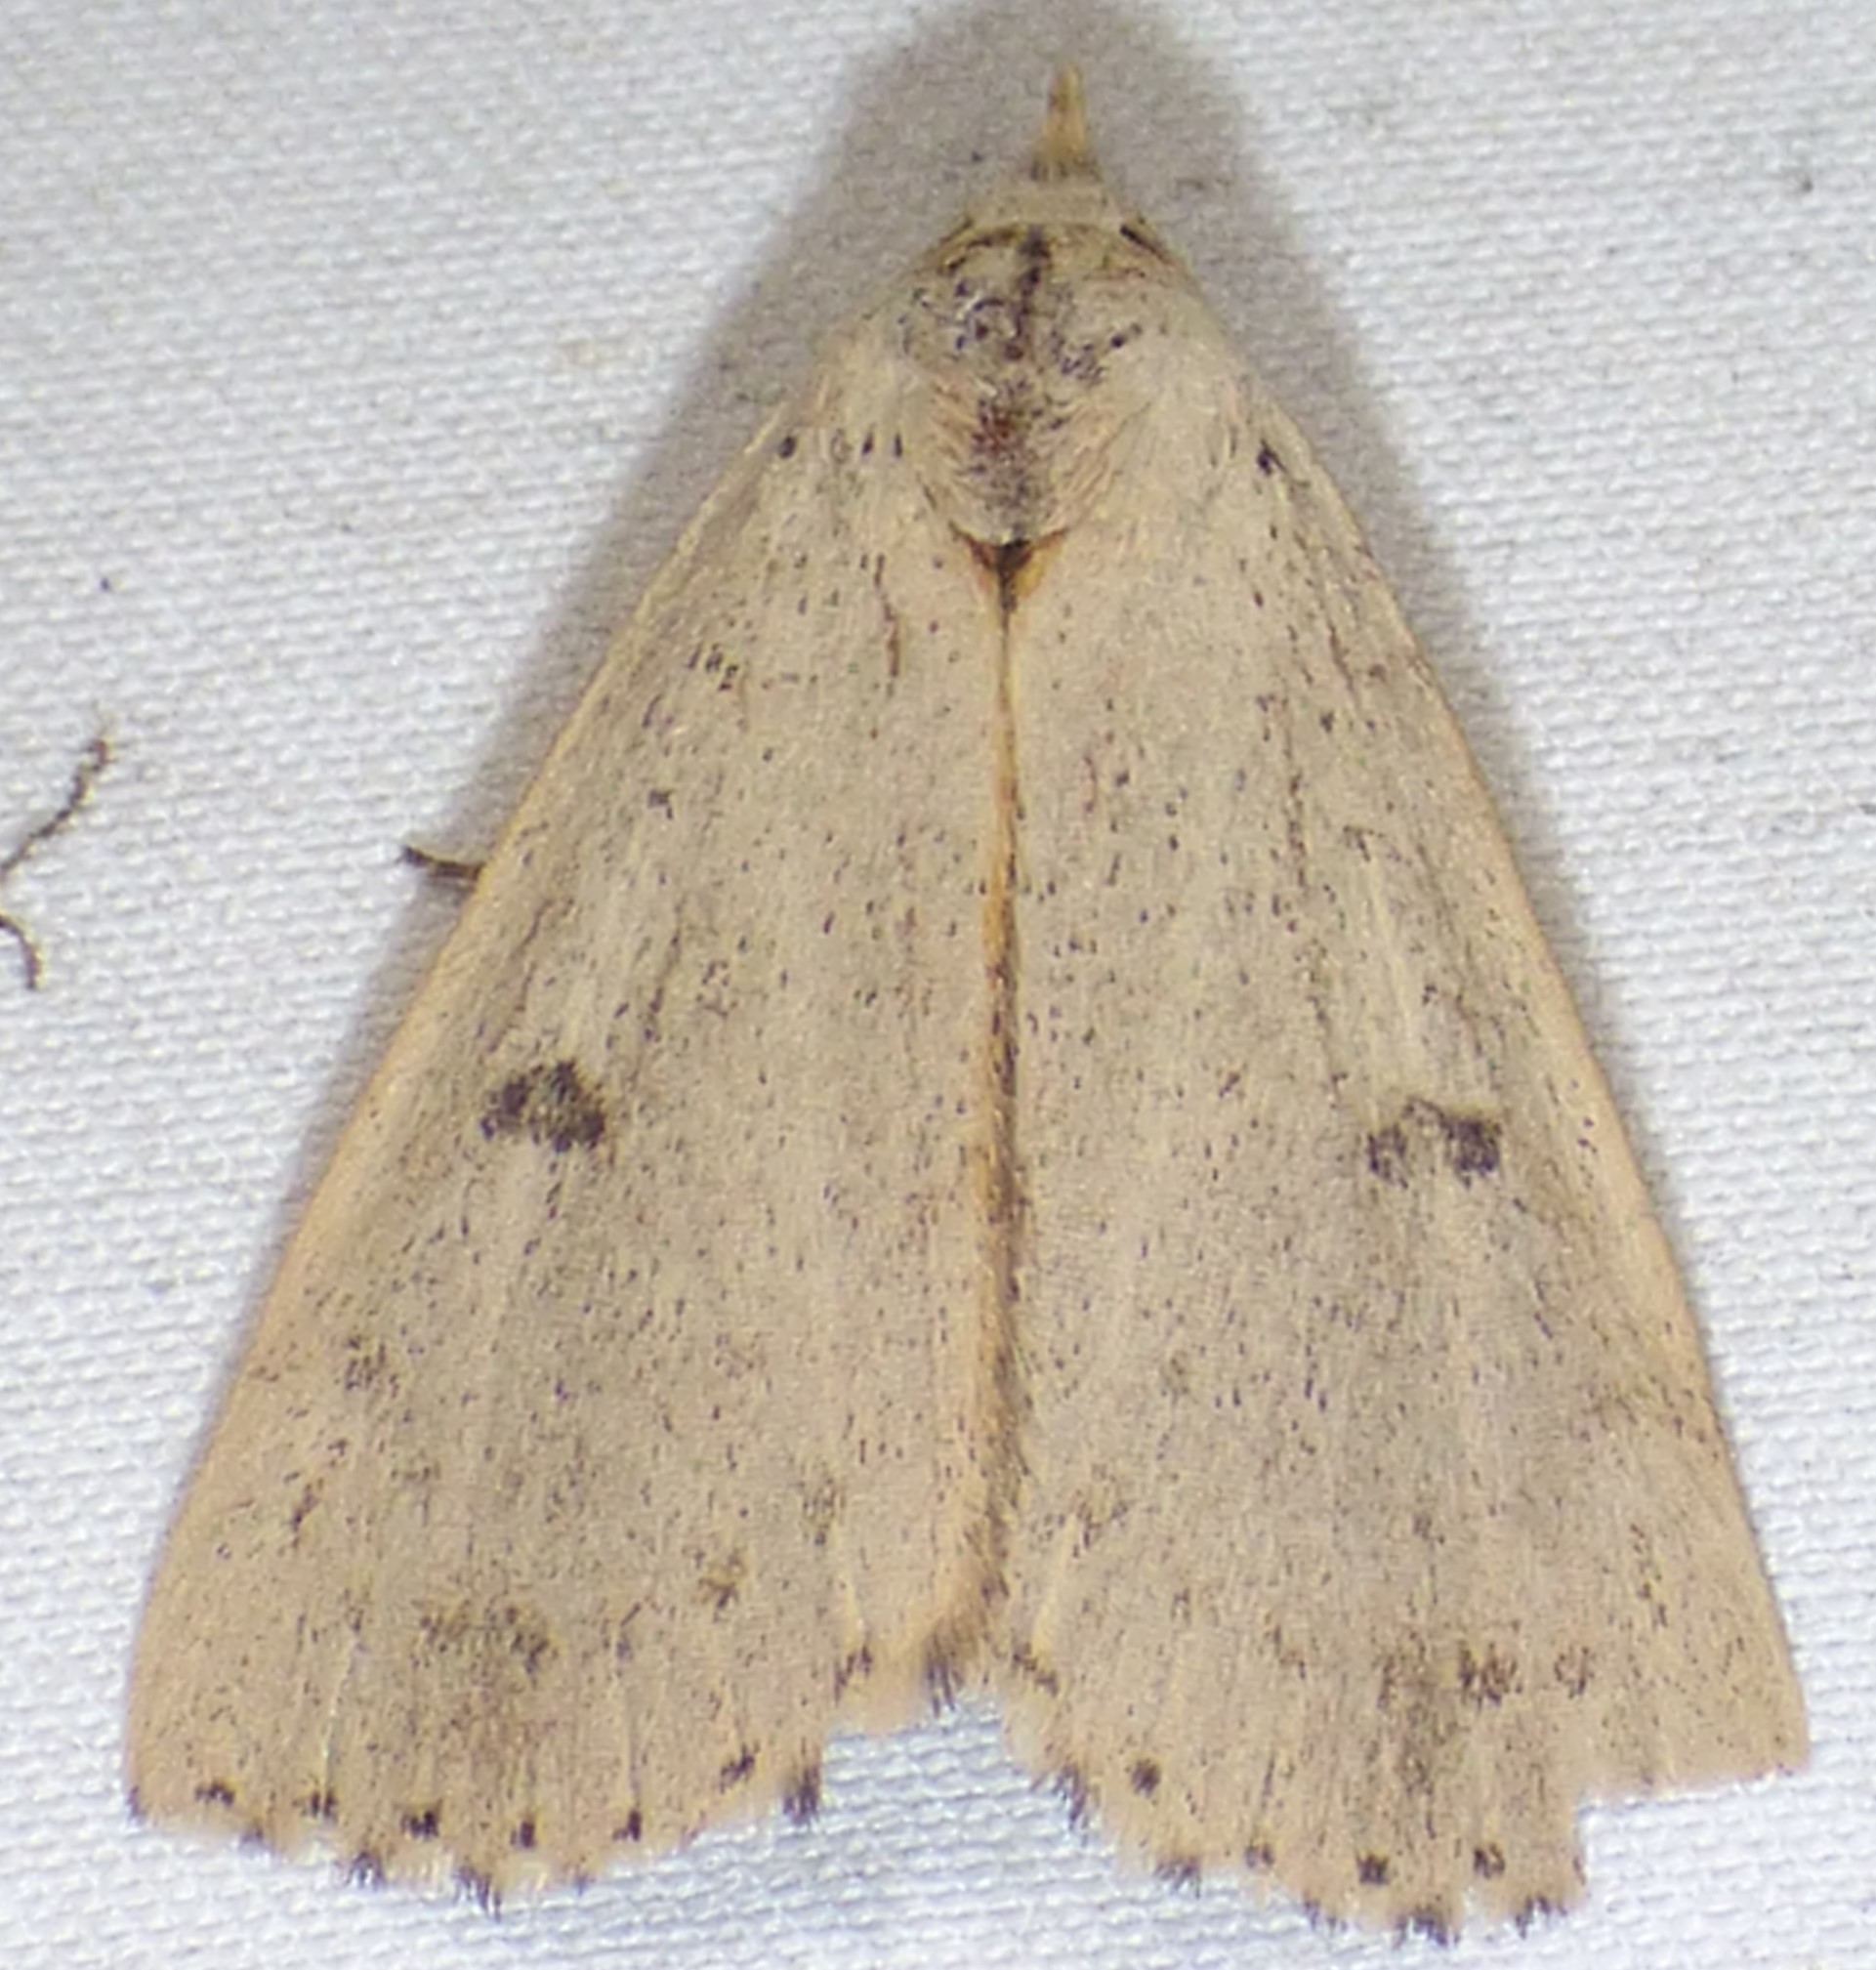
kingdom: Animalia
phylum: Arthropoda
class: Insecta
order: Lepidoptera
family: Erebidae
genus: Scolecocampa
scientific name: Scolecocampa liburna
